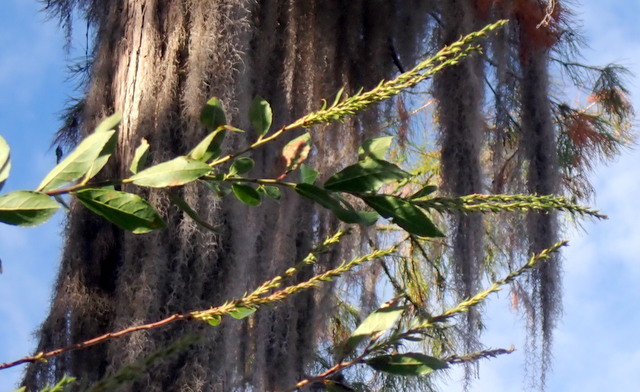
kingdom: Plantae
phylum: Tracheophyta
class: Magnoliopsida
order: Ericales
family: Ericaceae
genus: Eubotrys
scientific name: Eubotrys racemosa
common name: Fetterbush
